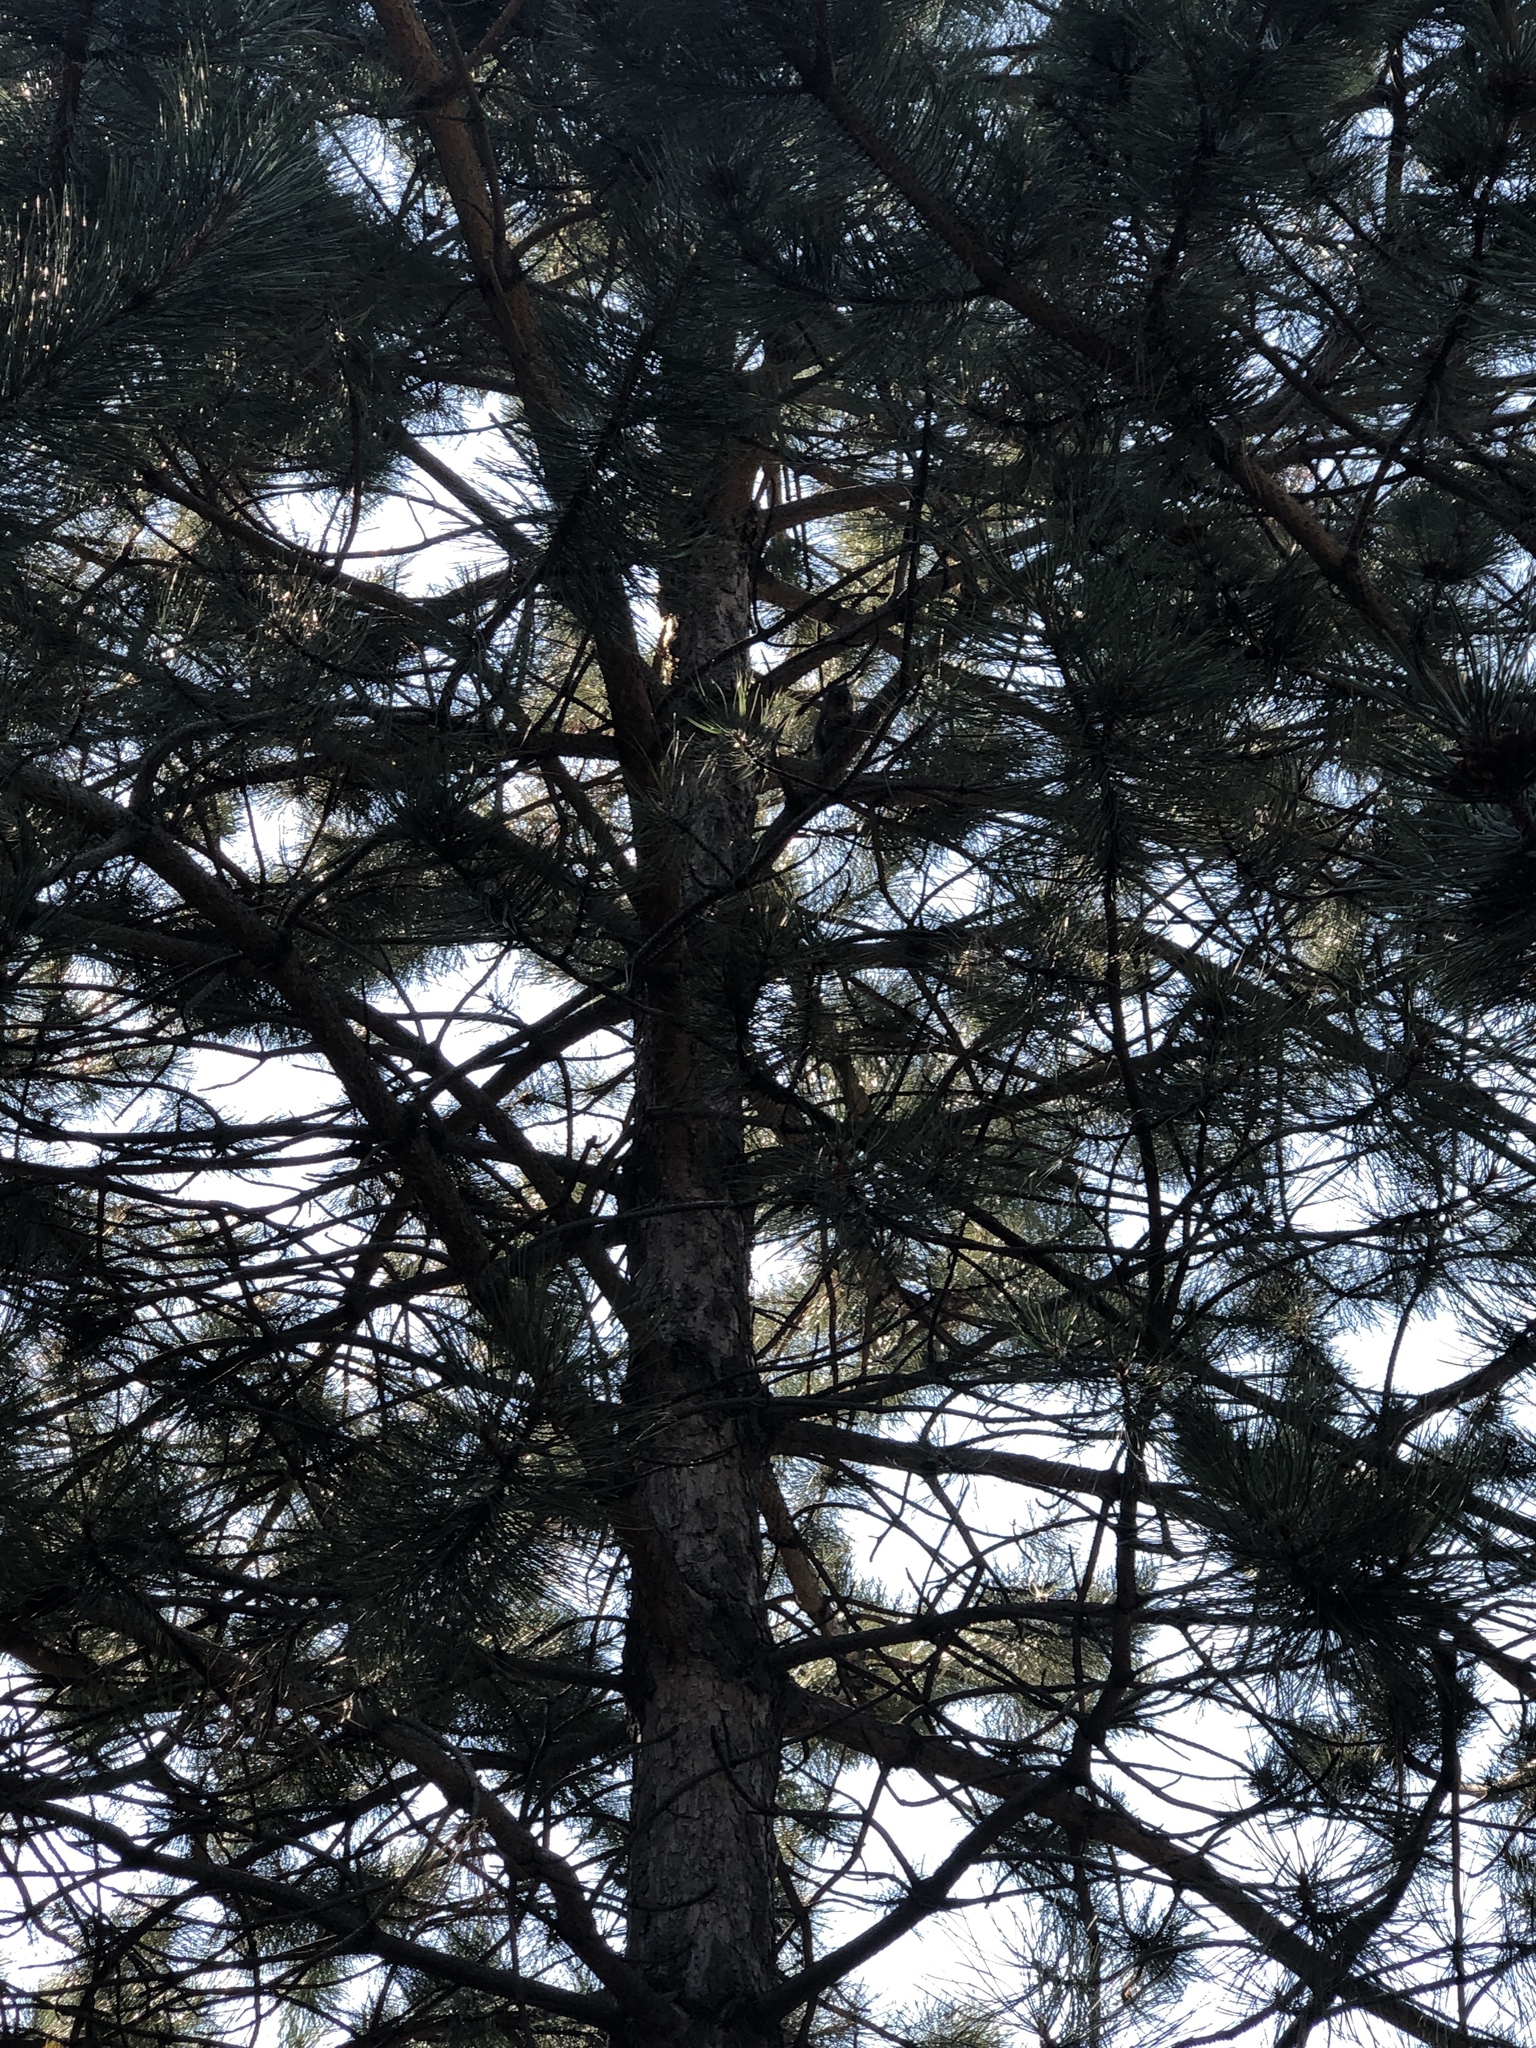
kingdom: Animalia
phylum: Chordata
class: Mammalia
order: Rodentia
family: Sciuridae
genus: Tamiasciurus
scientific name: Tamiasciurus hudsonicus
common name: Red squirrel
